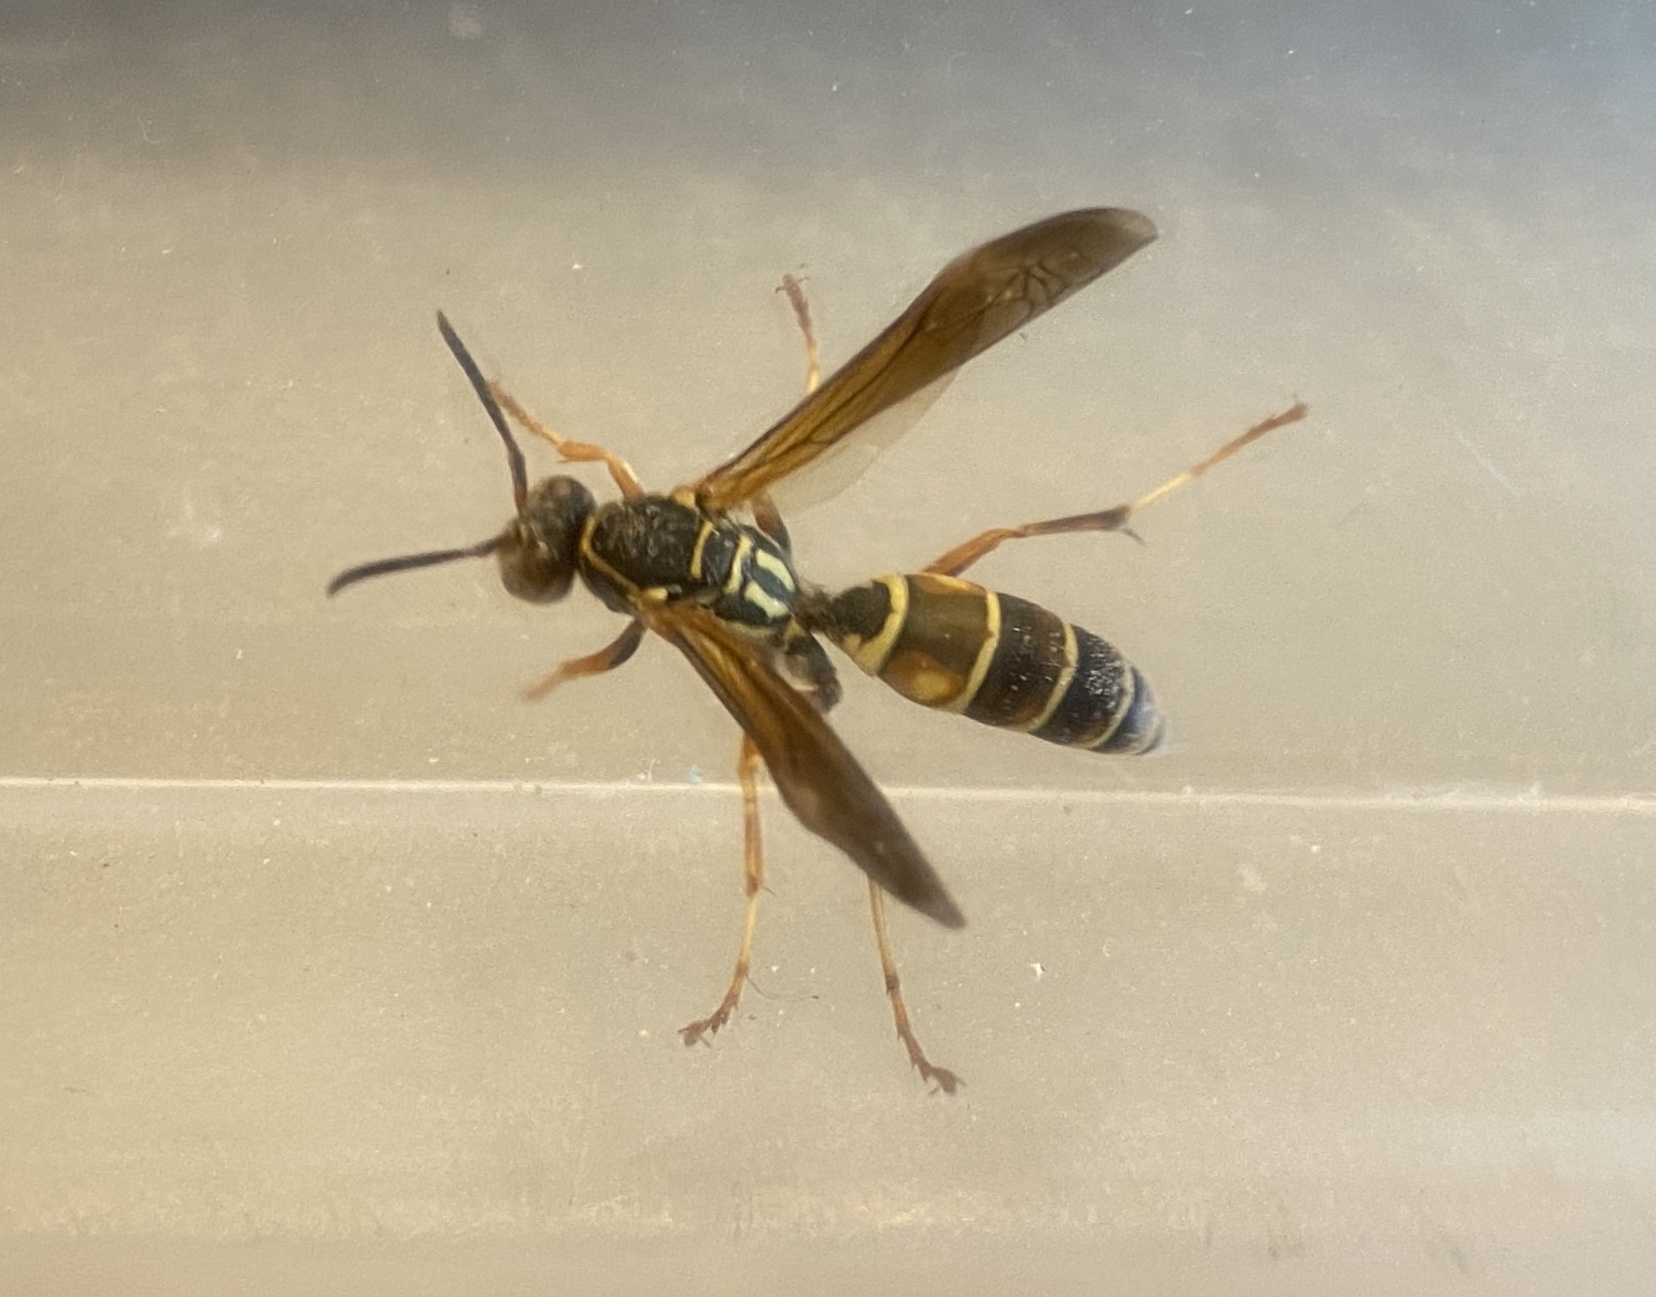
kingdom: Animalia
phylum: Arthropoda
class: Insecta
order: Hymenoptera
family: Eumenidae
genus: Polistes
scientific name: Polistes fuscatus
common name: Dark paper wasp
